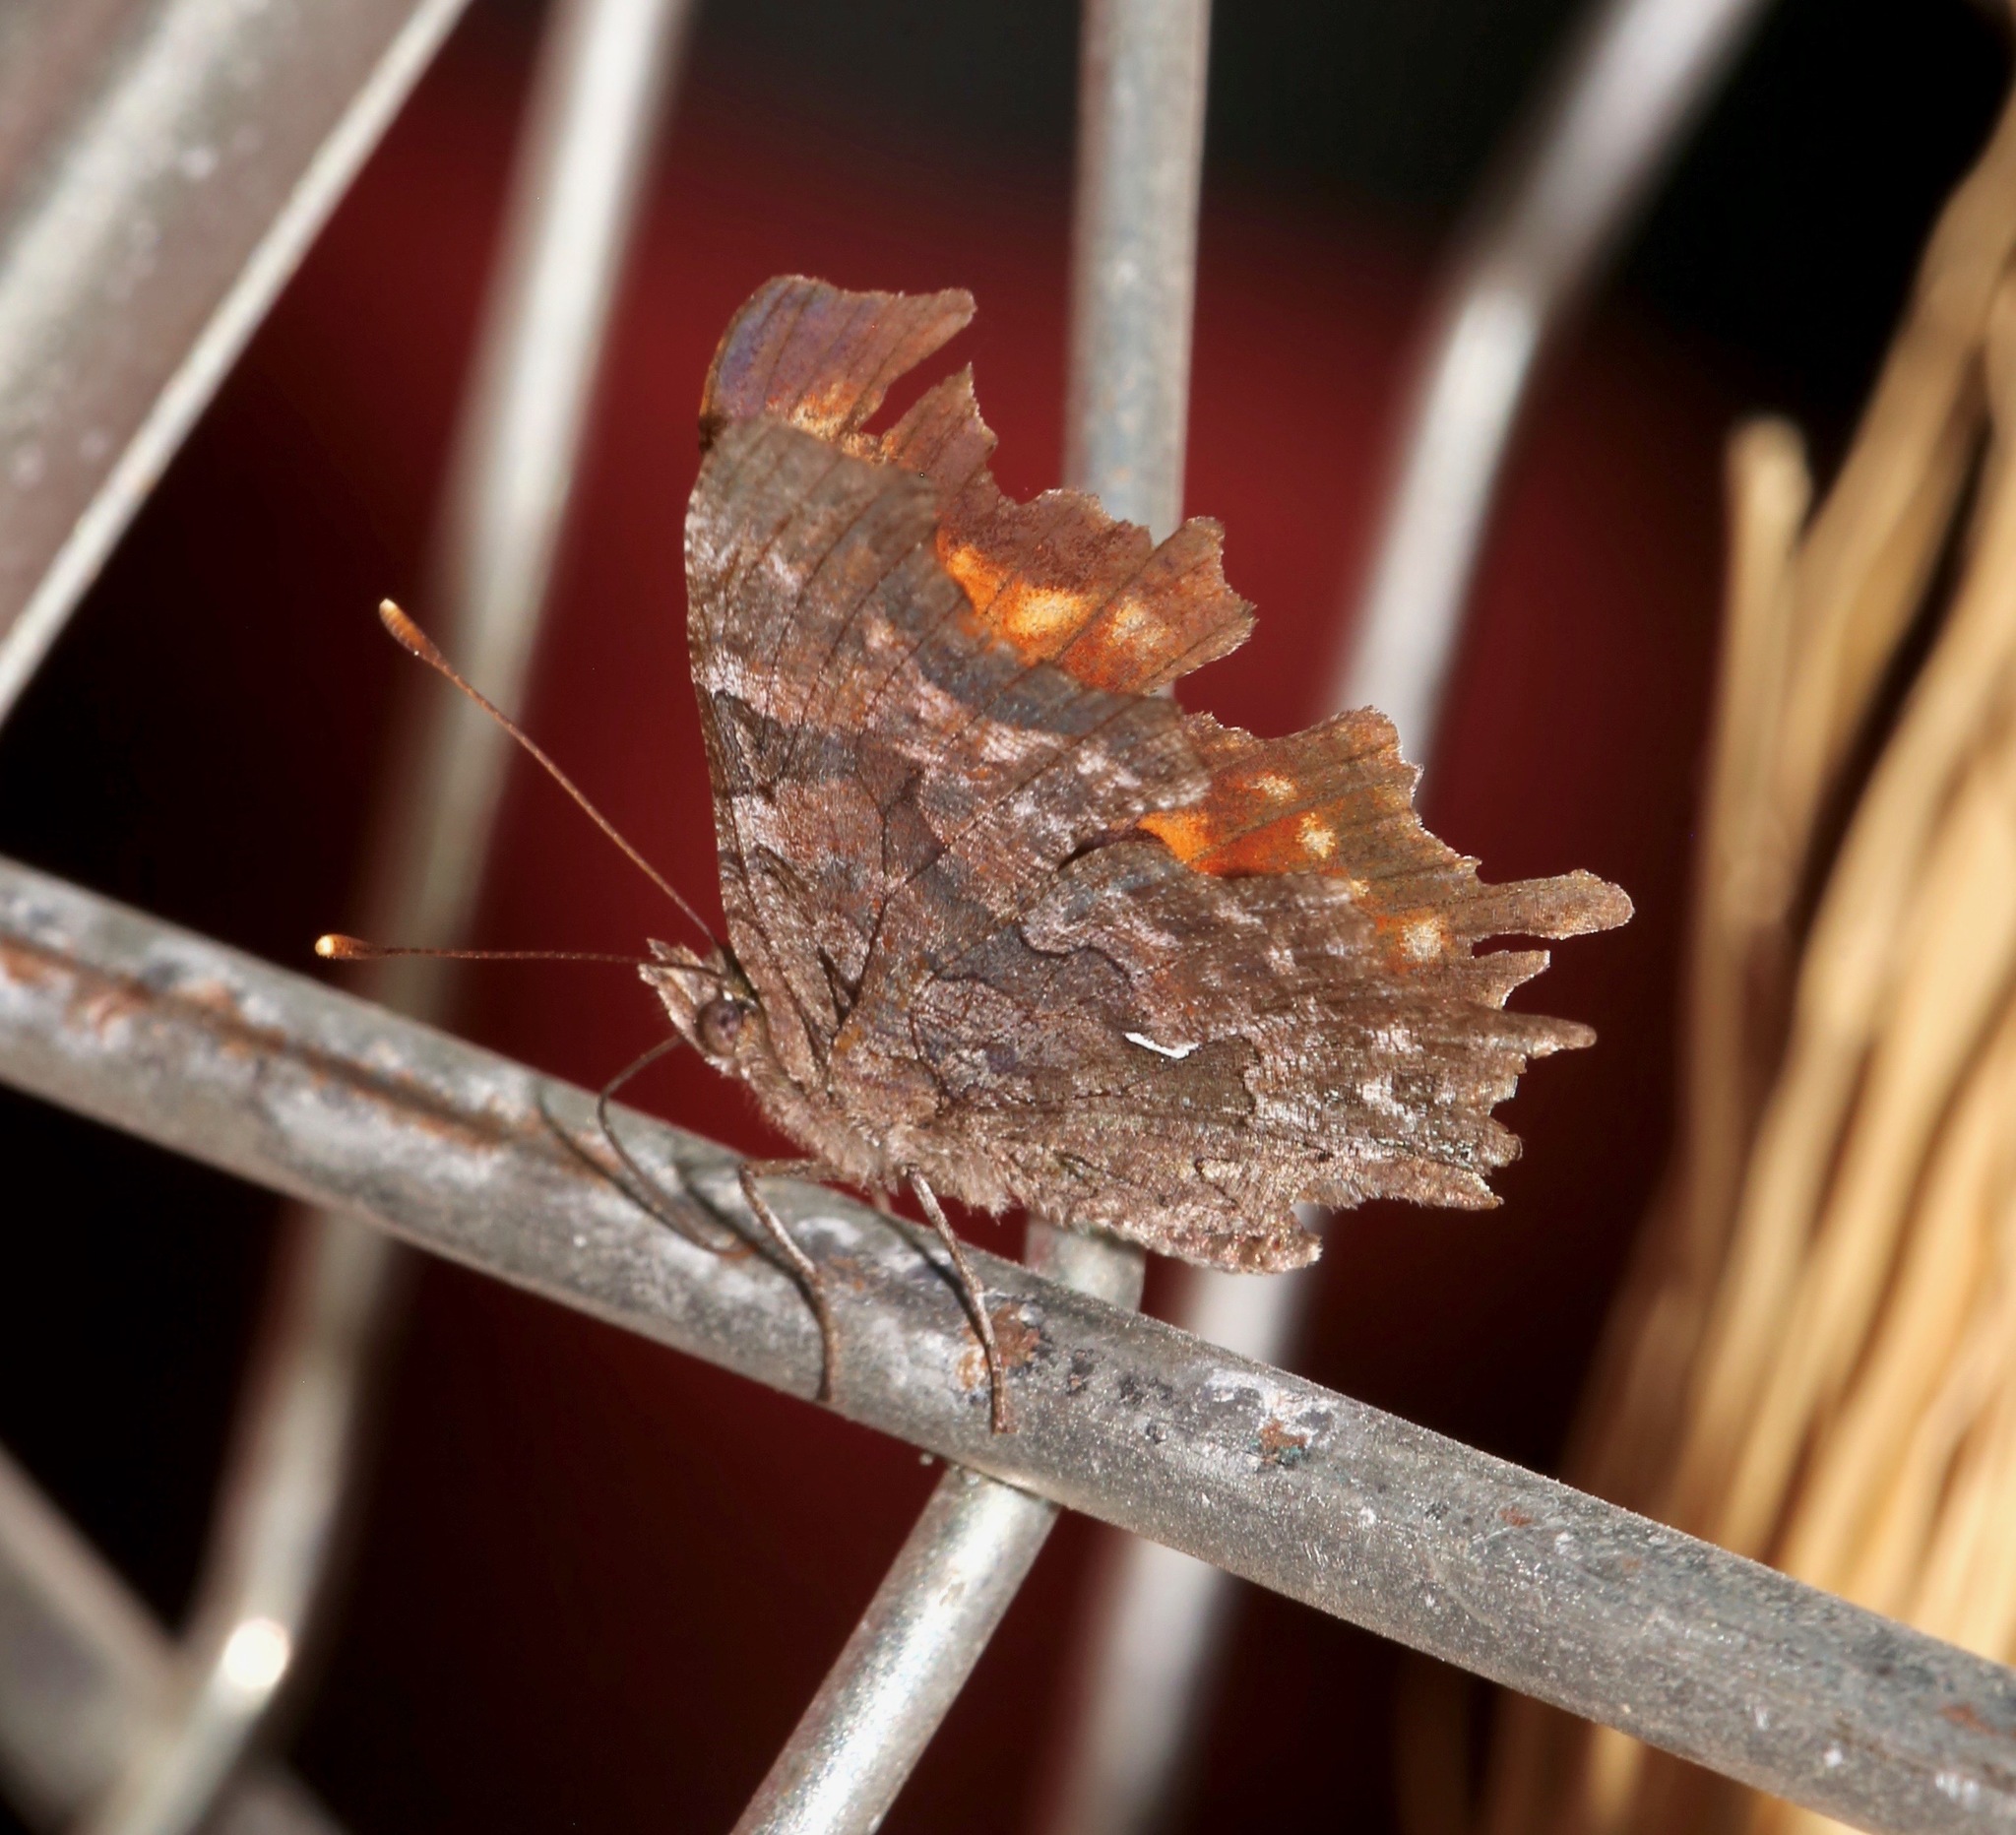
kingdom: Animalia
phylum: Arthropoda
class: Insecta
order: Lepidoptera
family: Nymphalidae
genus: Polygonia
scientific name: Polygonia faunus
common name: Green comma
